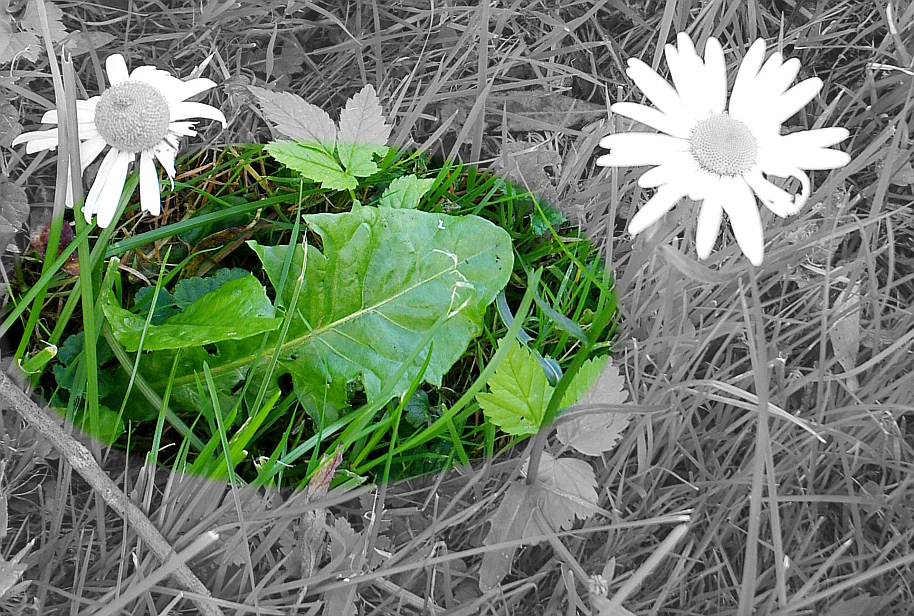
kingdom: Plantae
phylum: Tracheophyta
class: Magnoliopsida
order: Asterales
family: Asteraceae
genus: Taraxacum
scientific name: Taraxacum officinale
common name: Common dandelion
